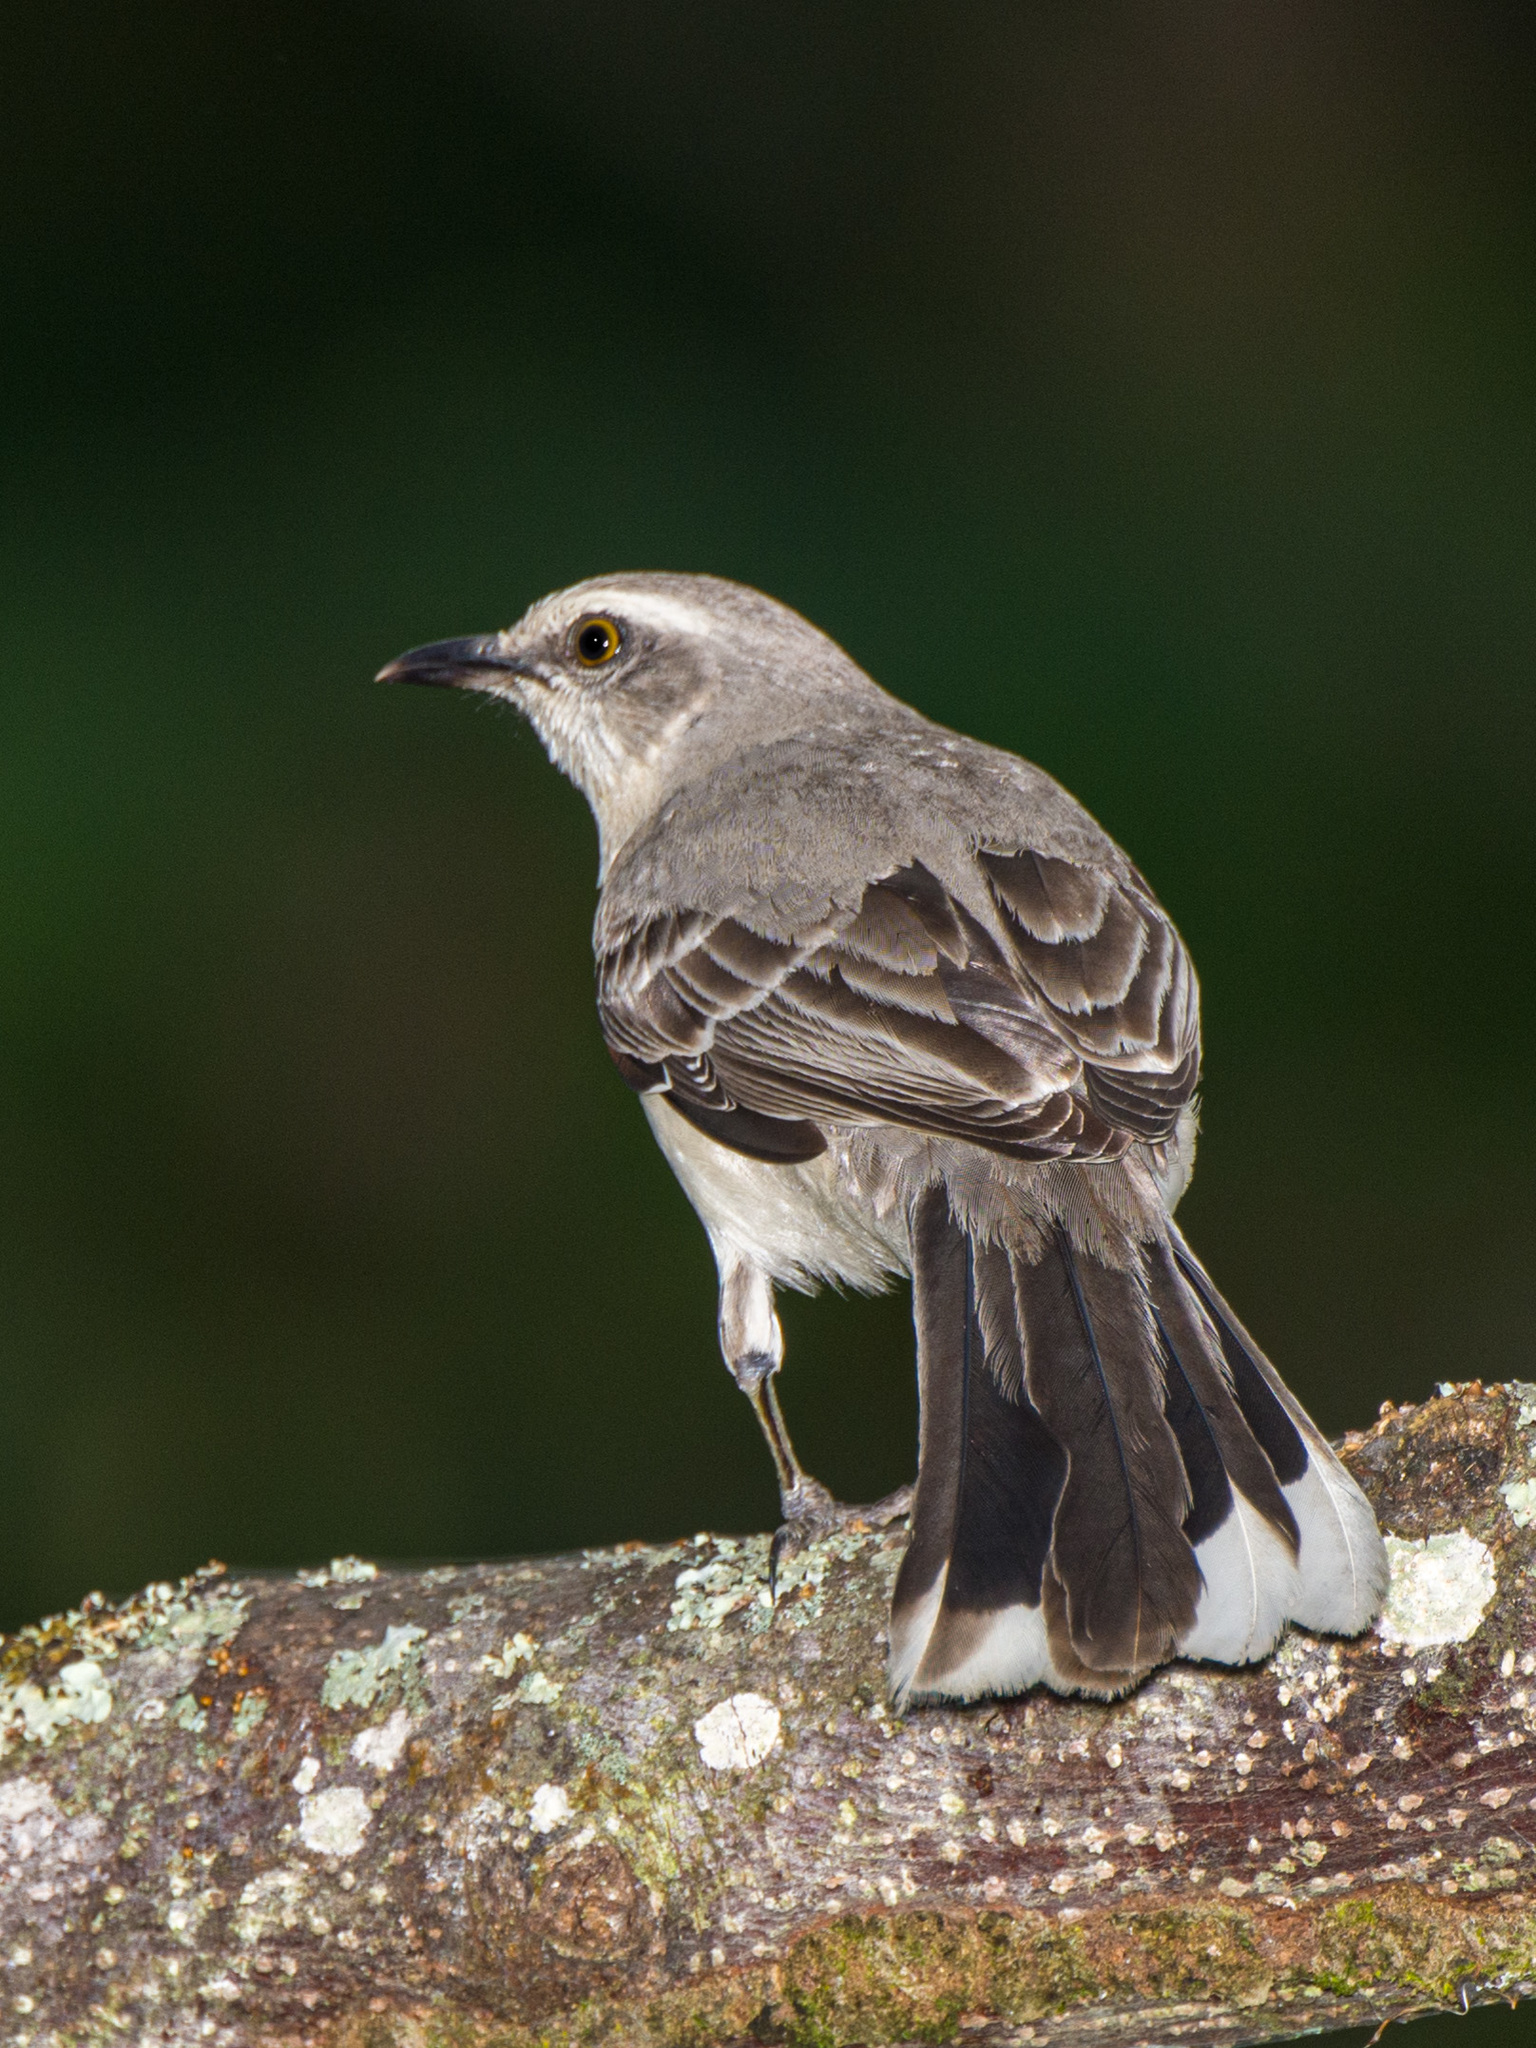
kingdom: Animalia
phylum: Chordata
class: Aves
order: Passeriformes
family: Mimidae
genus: Mimus
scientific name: Mimus gilvus
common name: Tropical mockingbird
